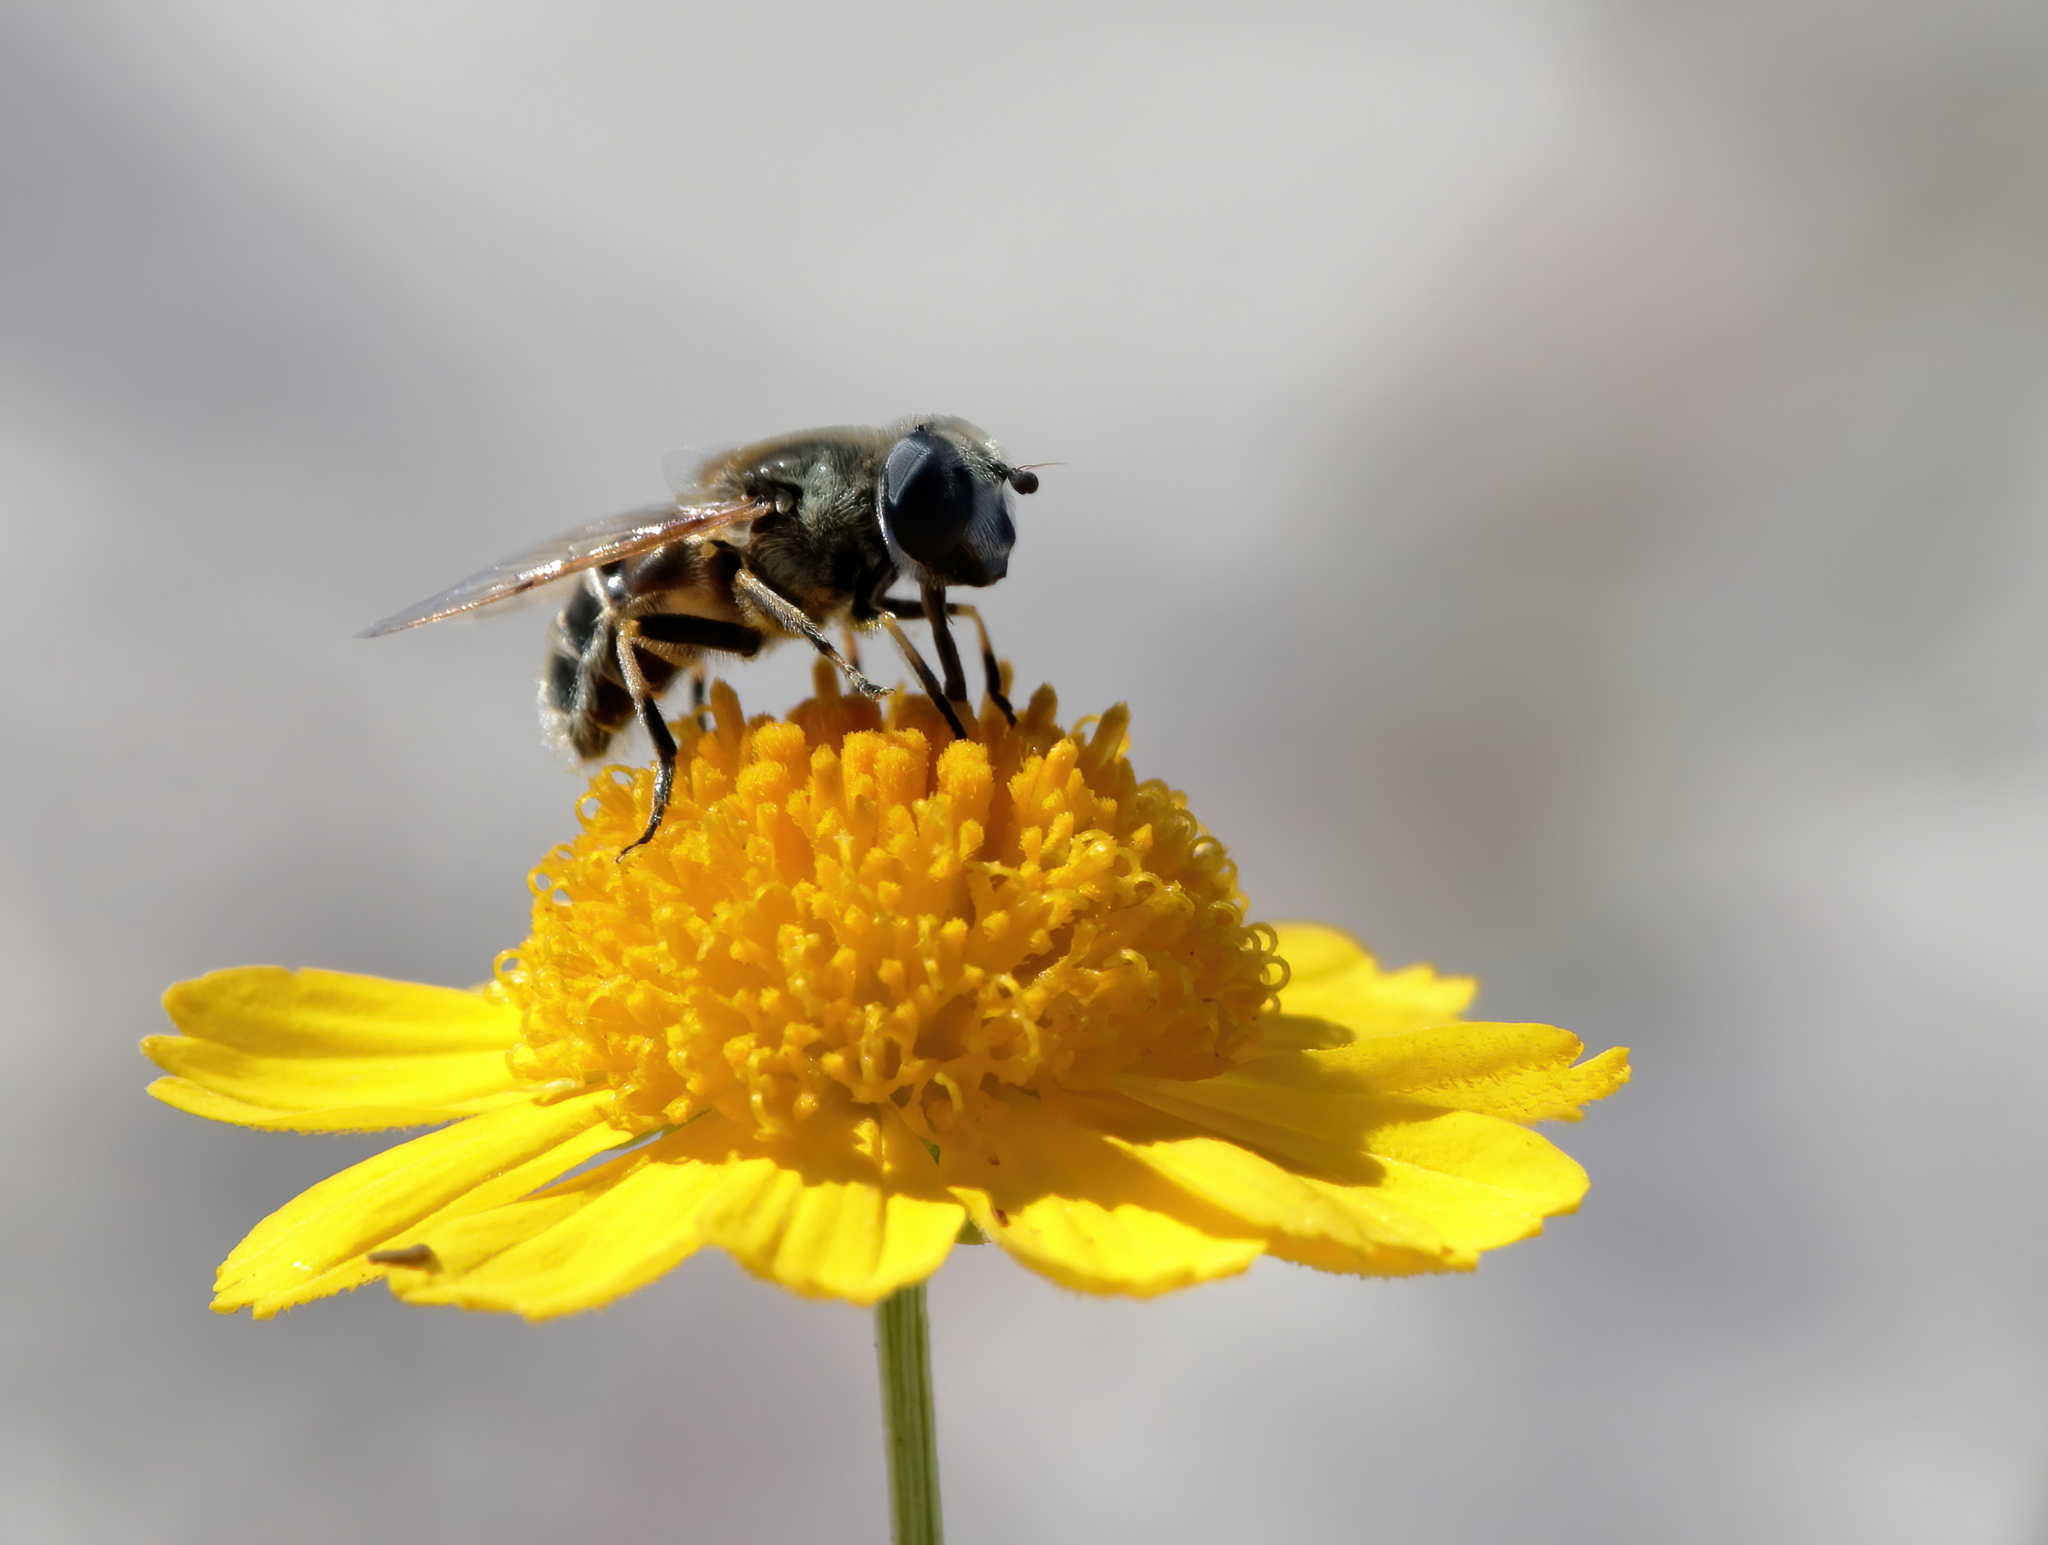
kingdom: Animalia
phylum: Arthropoda
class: Insecta
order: Diptera
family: Syrphidae
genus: Eristalis
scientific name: Eristalis stipator
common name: Yellow-shouldered drone fly
